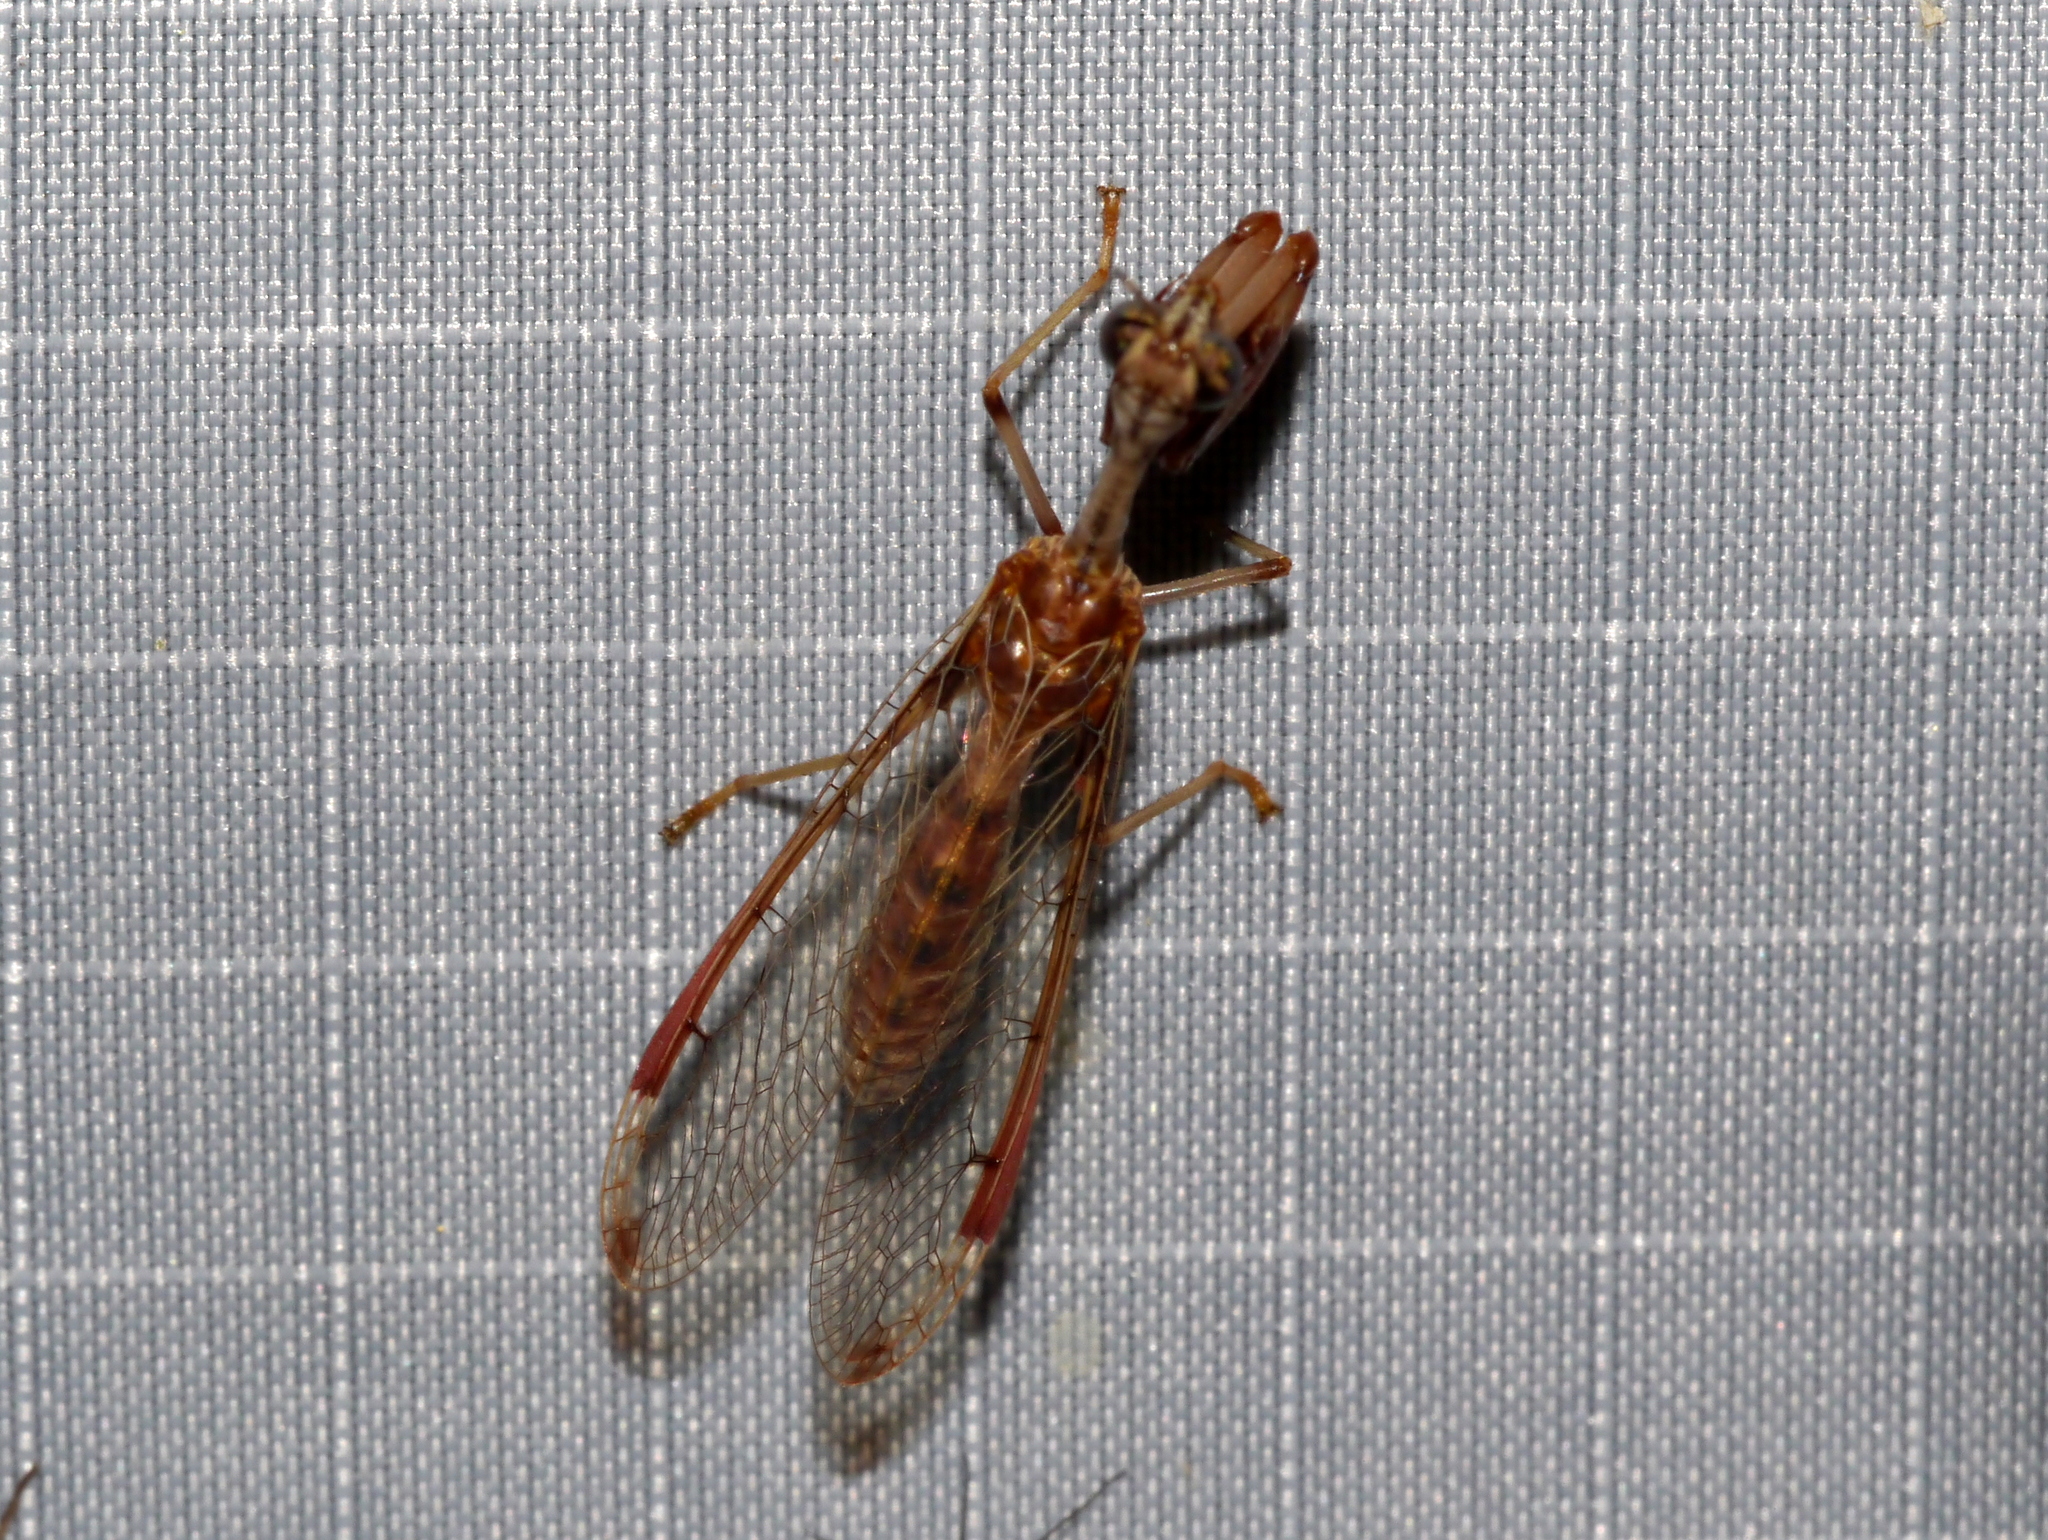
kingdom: Animalia
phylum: Arthropoda
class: Insecta
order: Neuroptera
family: Mantispidae
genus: Dicromantispa
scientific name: Dicromantispa interrupta
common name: Four-spotted mantidfly
